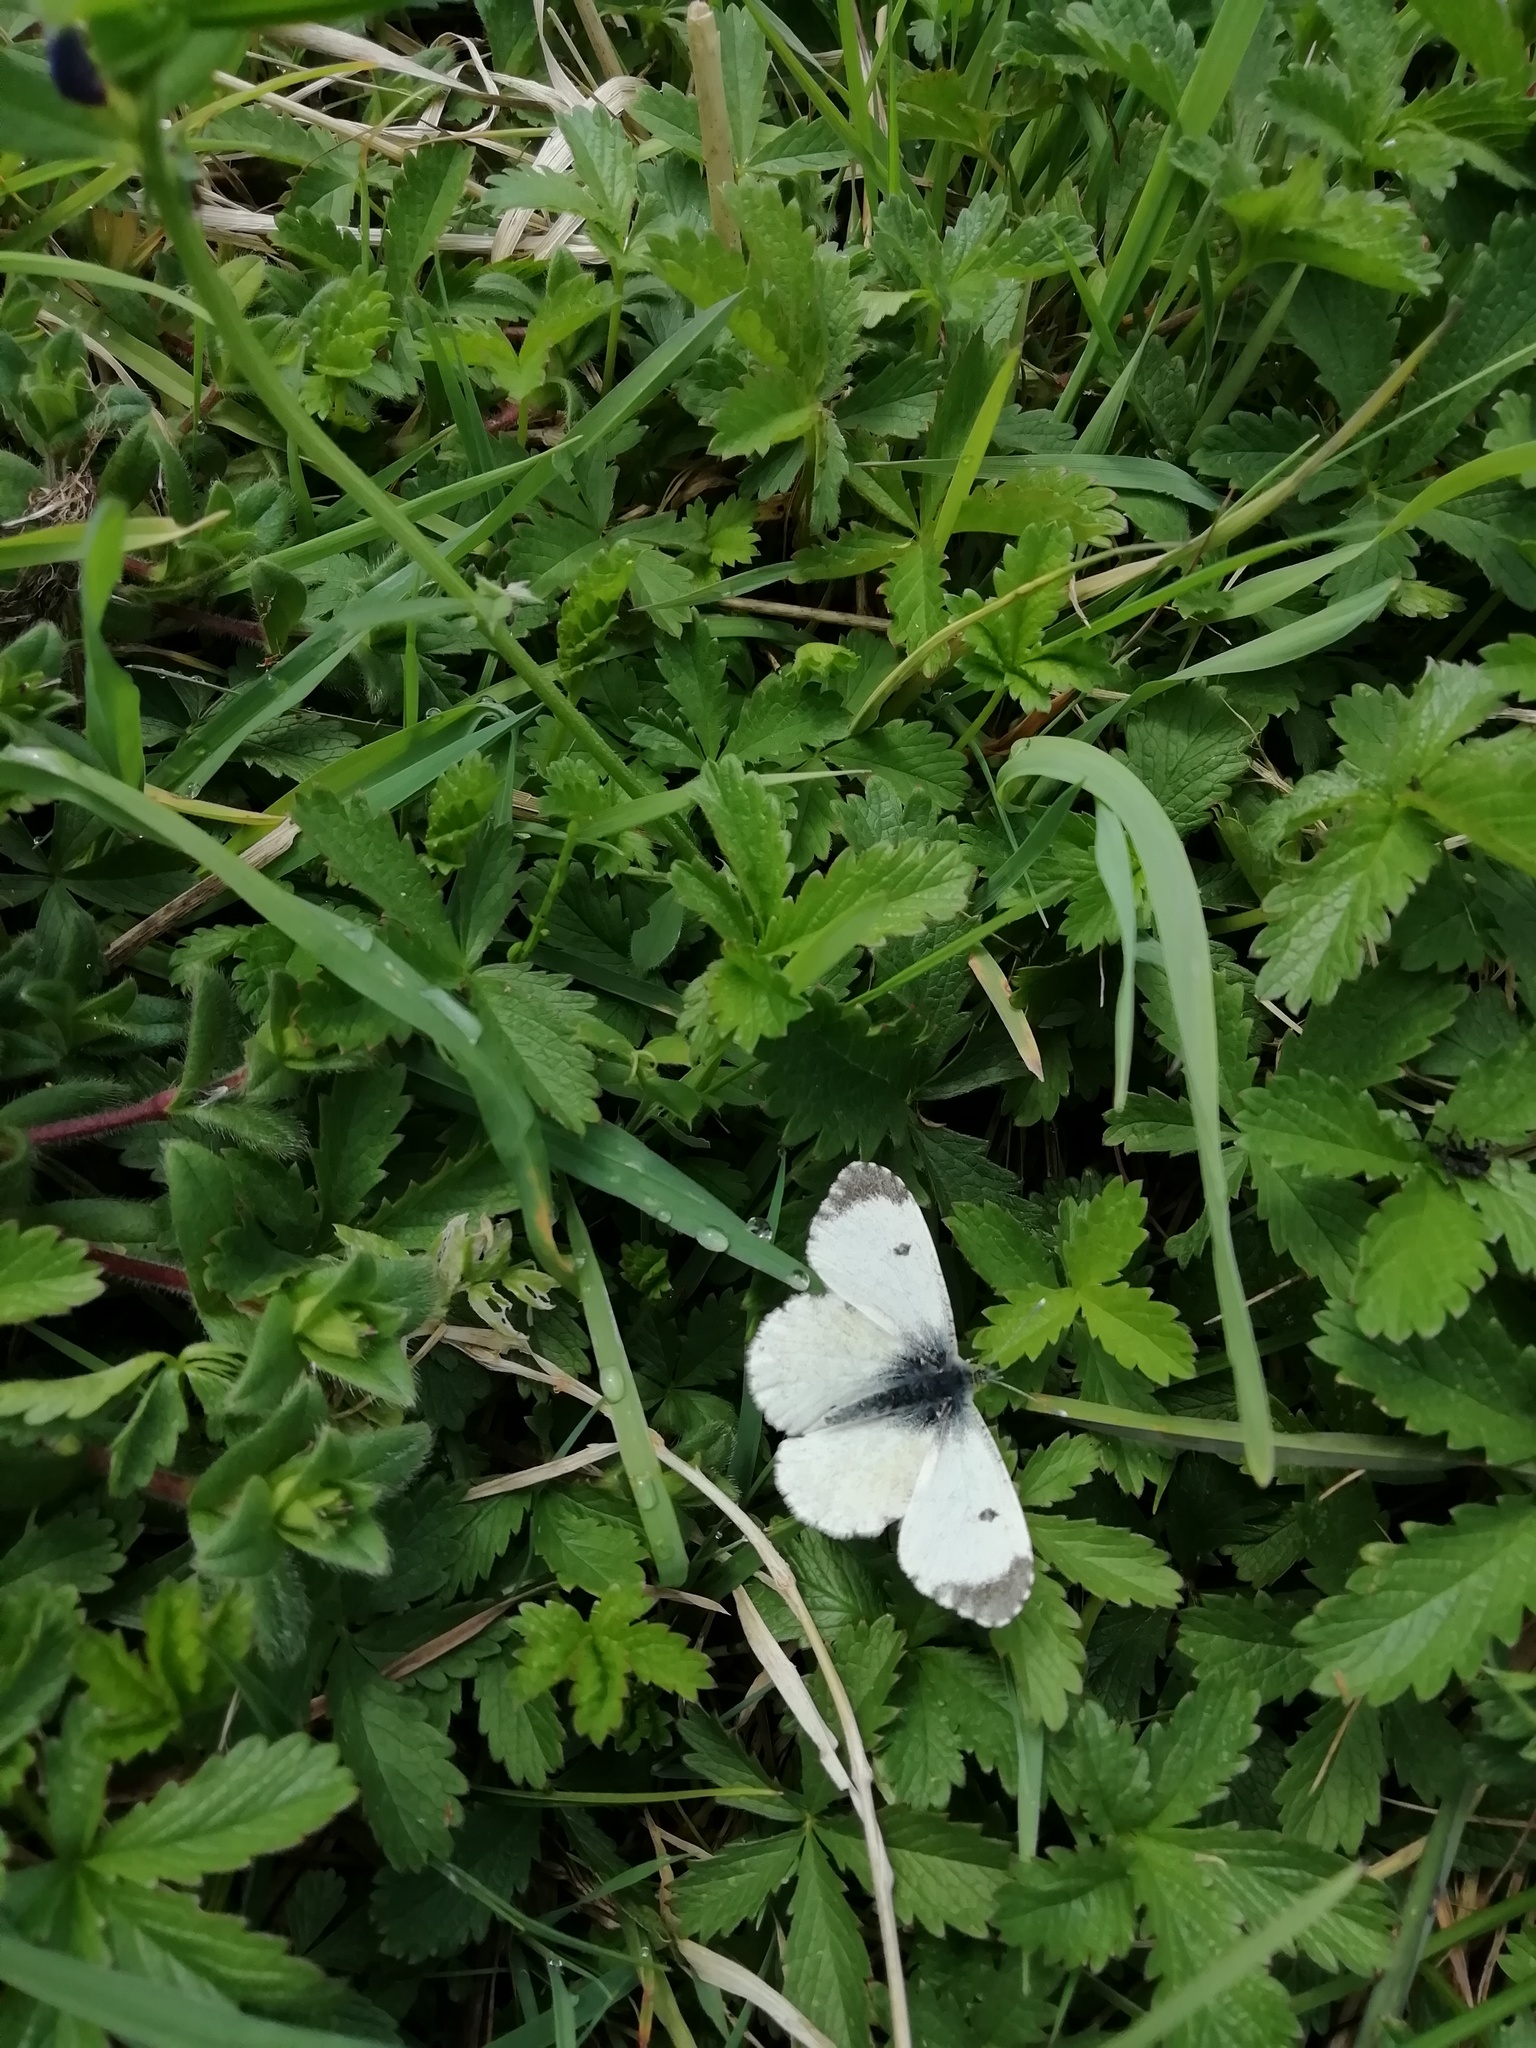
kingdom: Animalia
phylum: Arthropoda
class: Insecta
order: Lepidoptera
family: Pieridae
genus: Anthocharis
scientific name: Anthocharis cardamines
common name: Orange-tip
